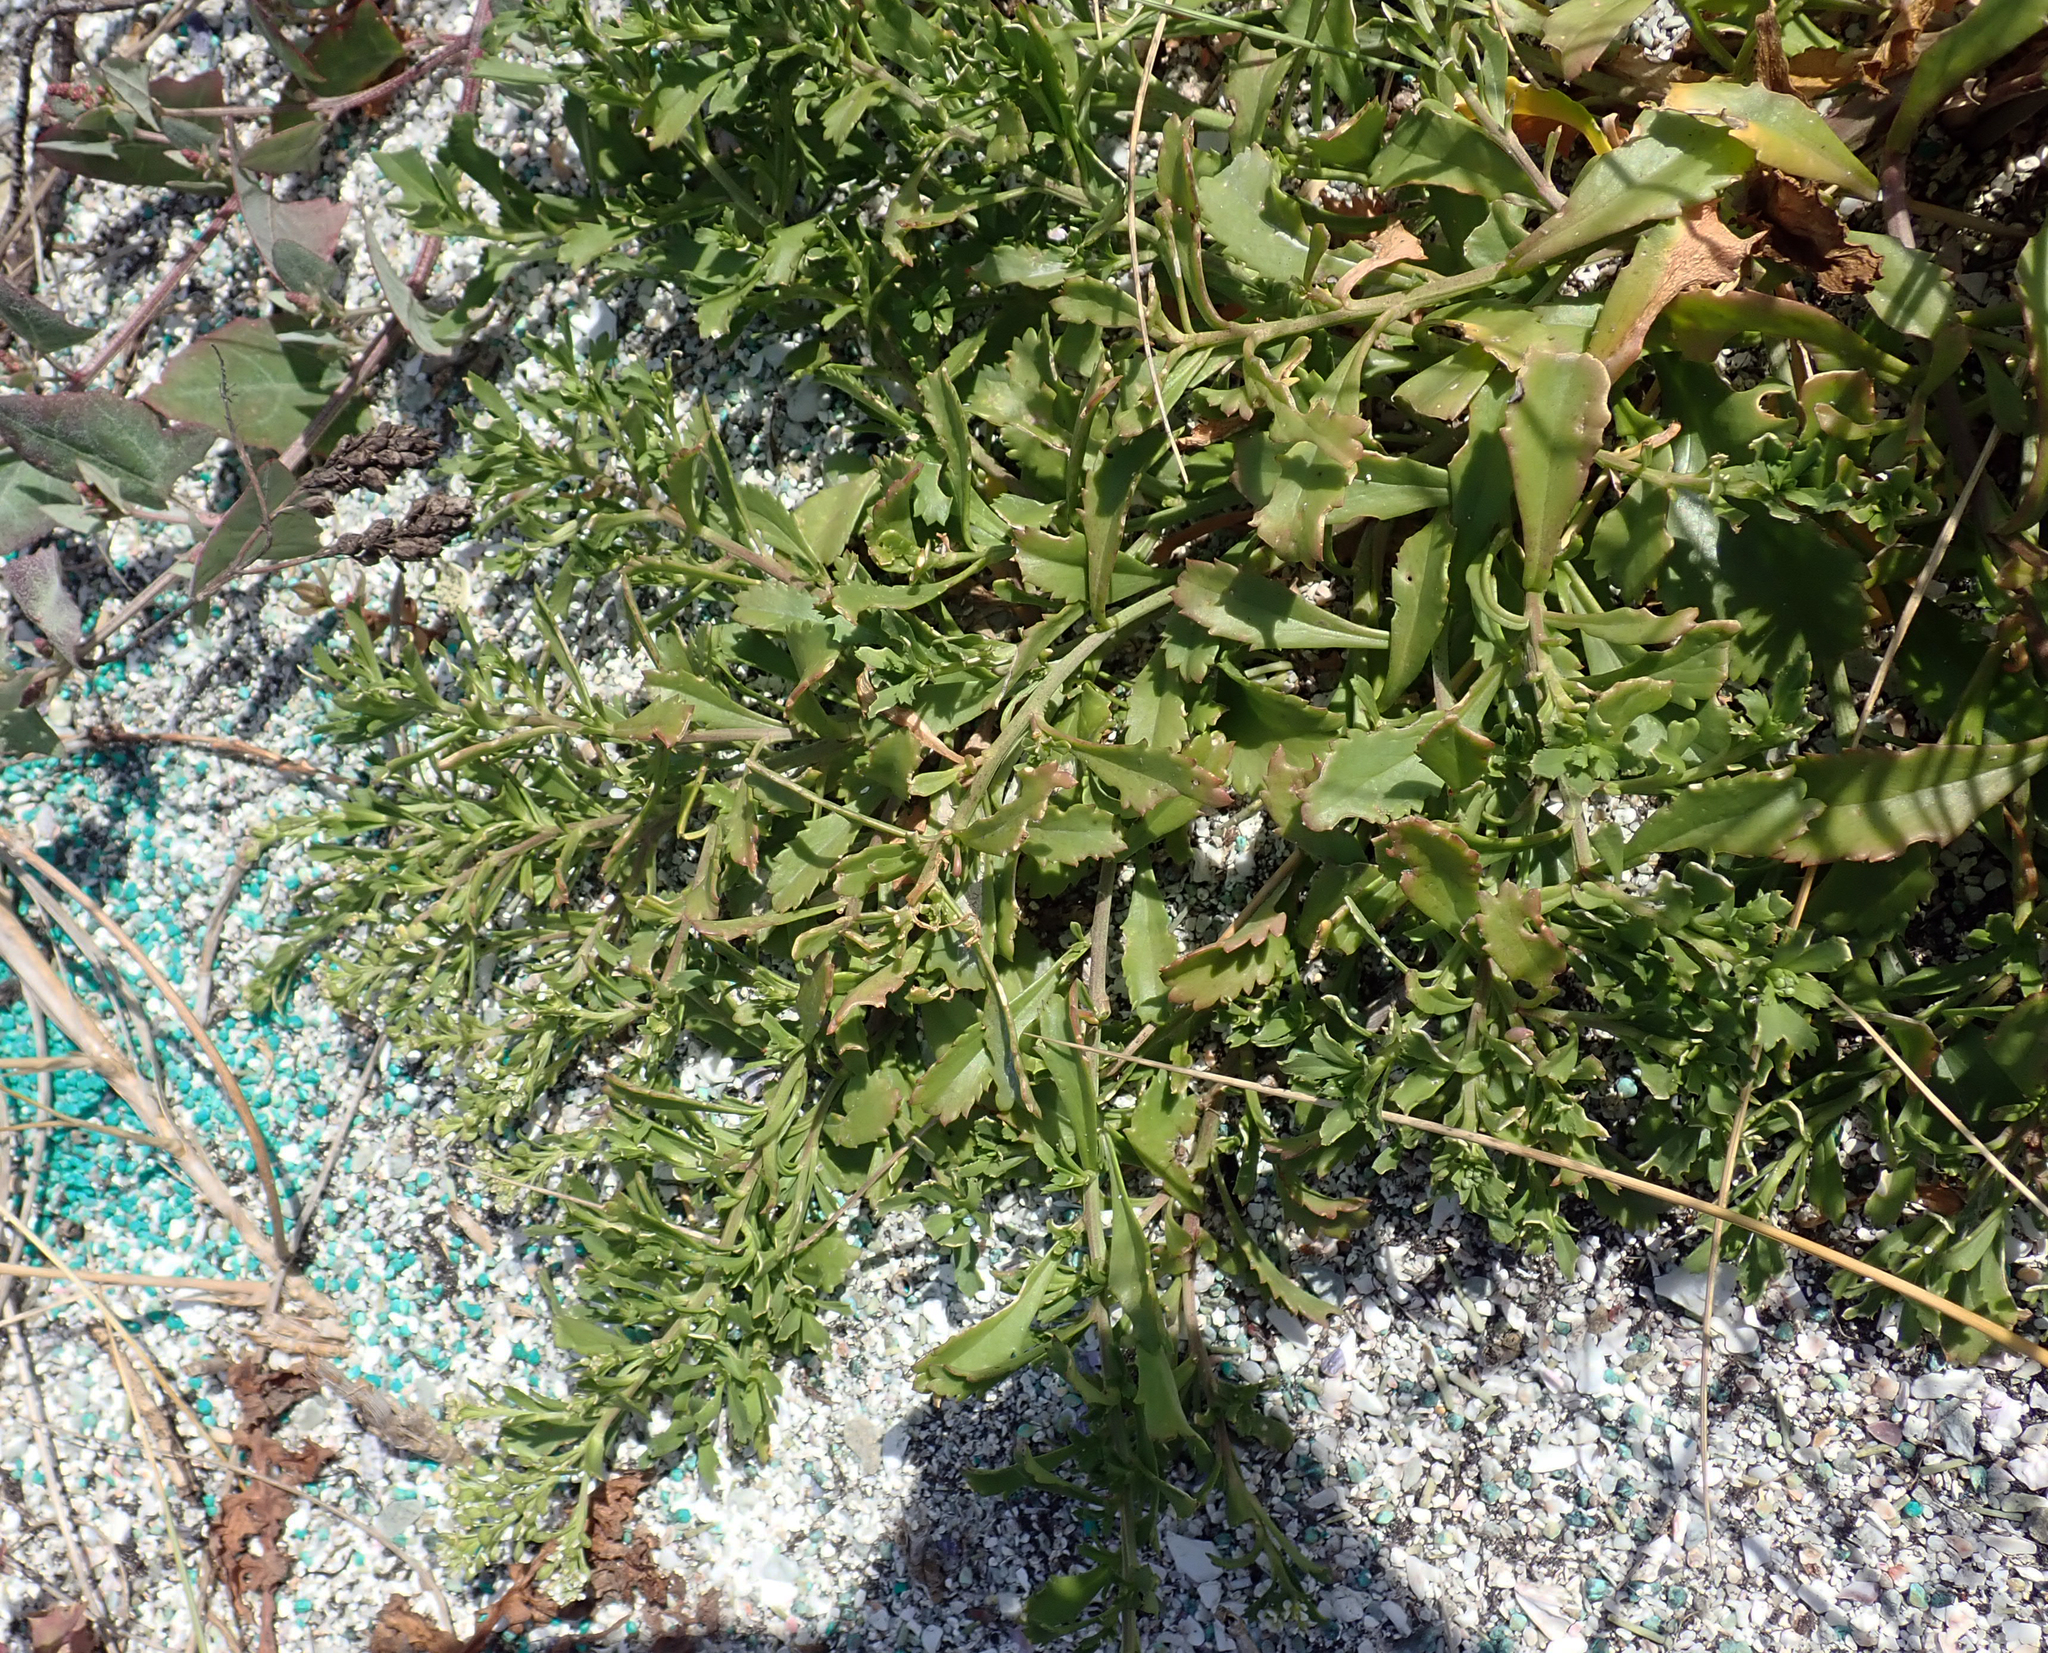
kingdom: Plantae
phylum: Tracheophyta
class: Magnoliopsida
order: Brassicales
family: Brassicaceae
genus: Lepidium
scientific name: Lepidium rekohuense
